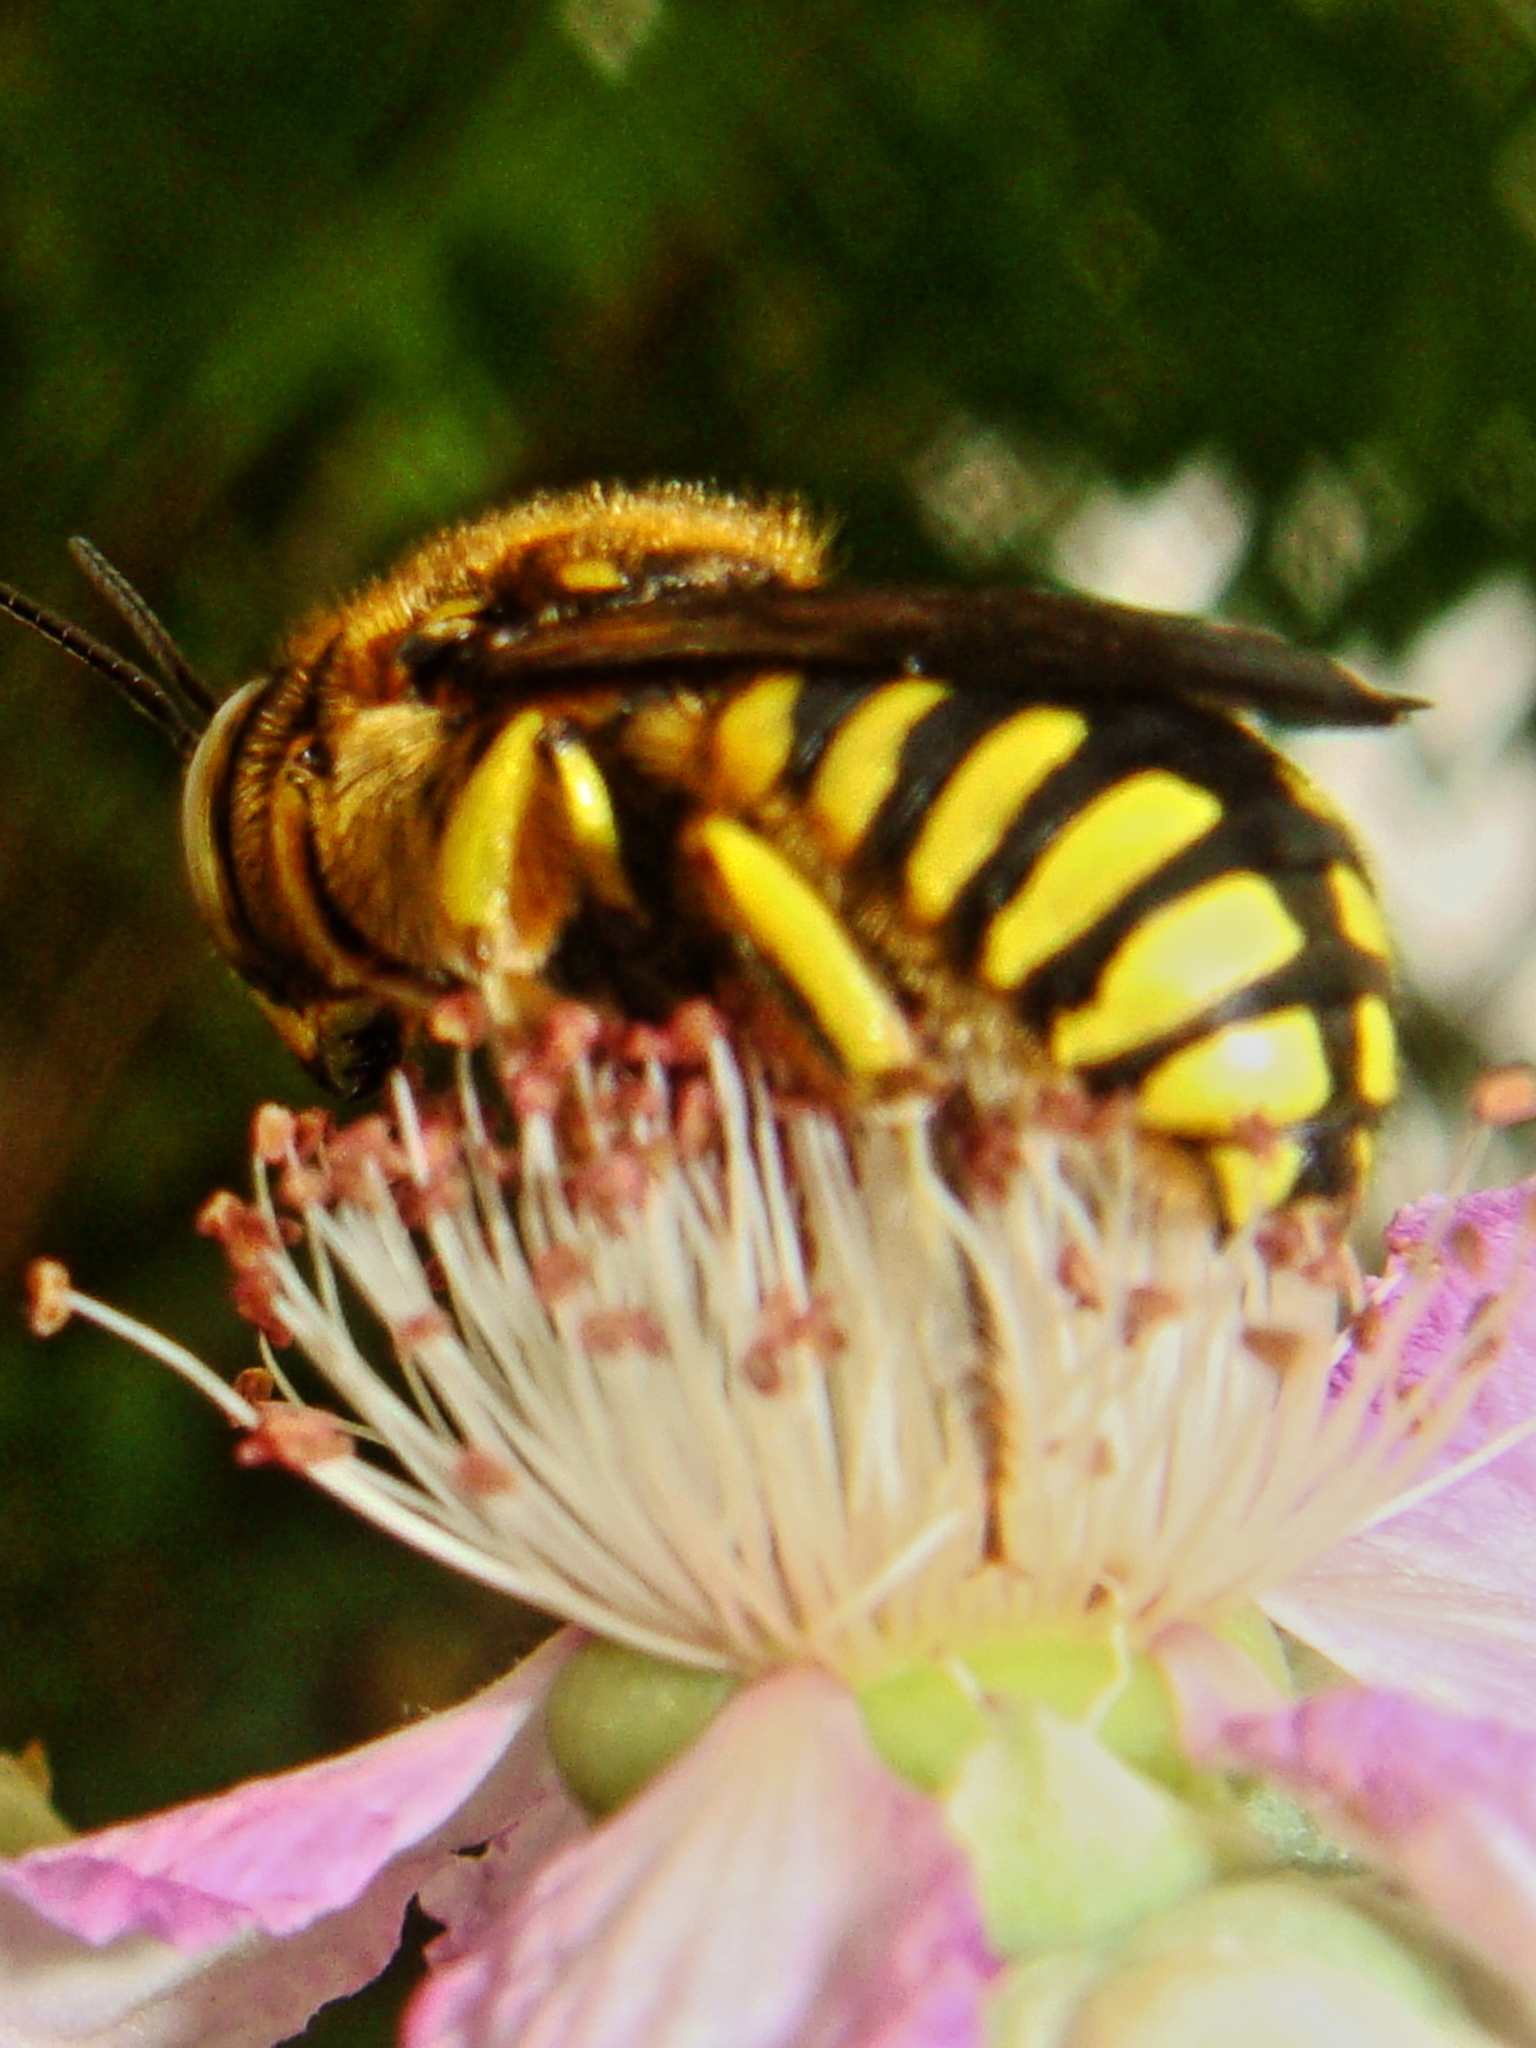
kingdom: Animalia
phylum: Arthropoda
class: Insecta
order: Hymenoptera
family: Megachilidae
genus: Anthidium
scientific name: Anthidium florentinum
